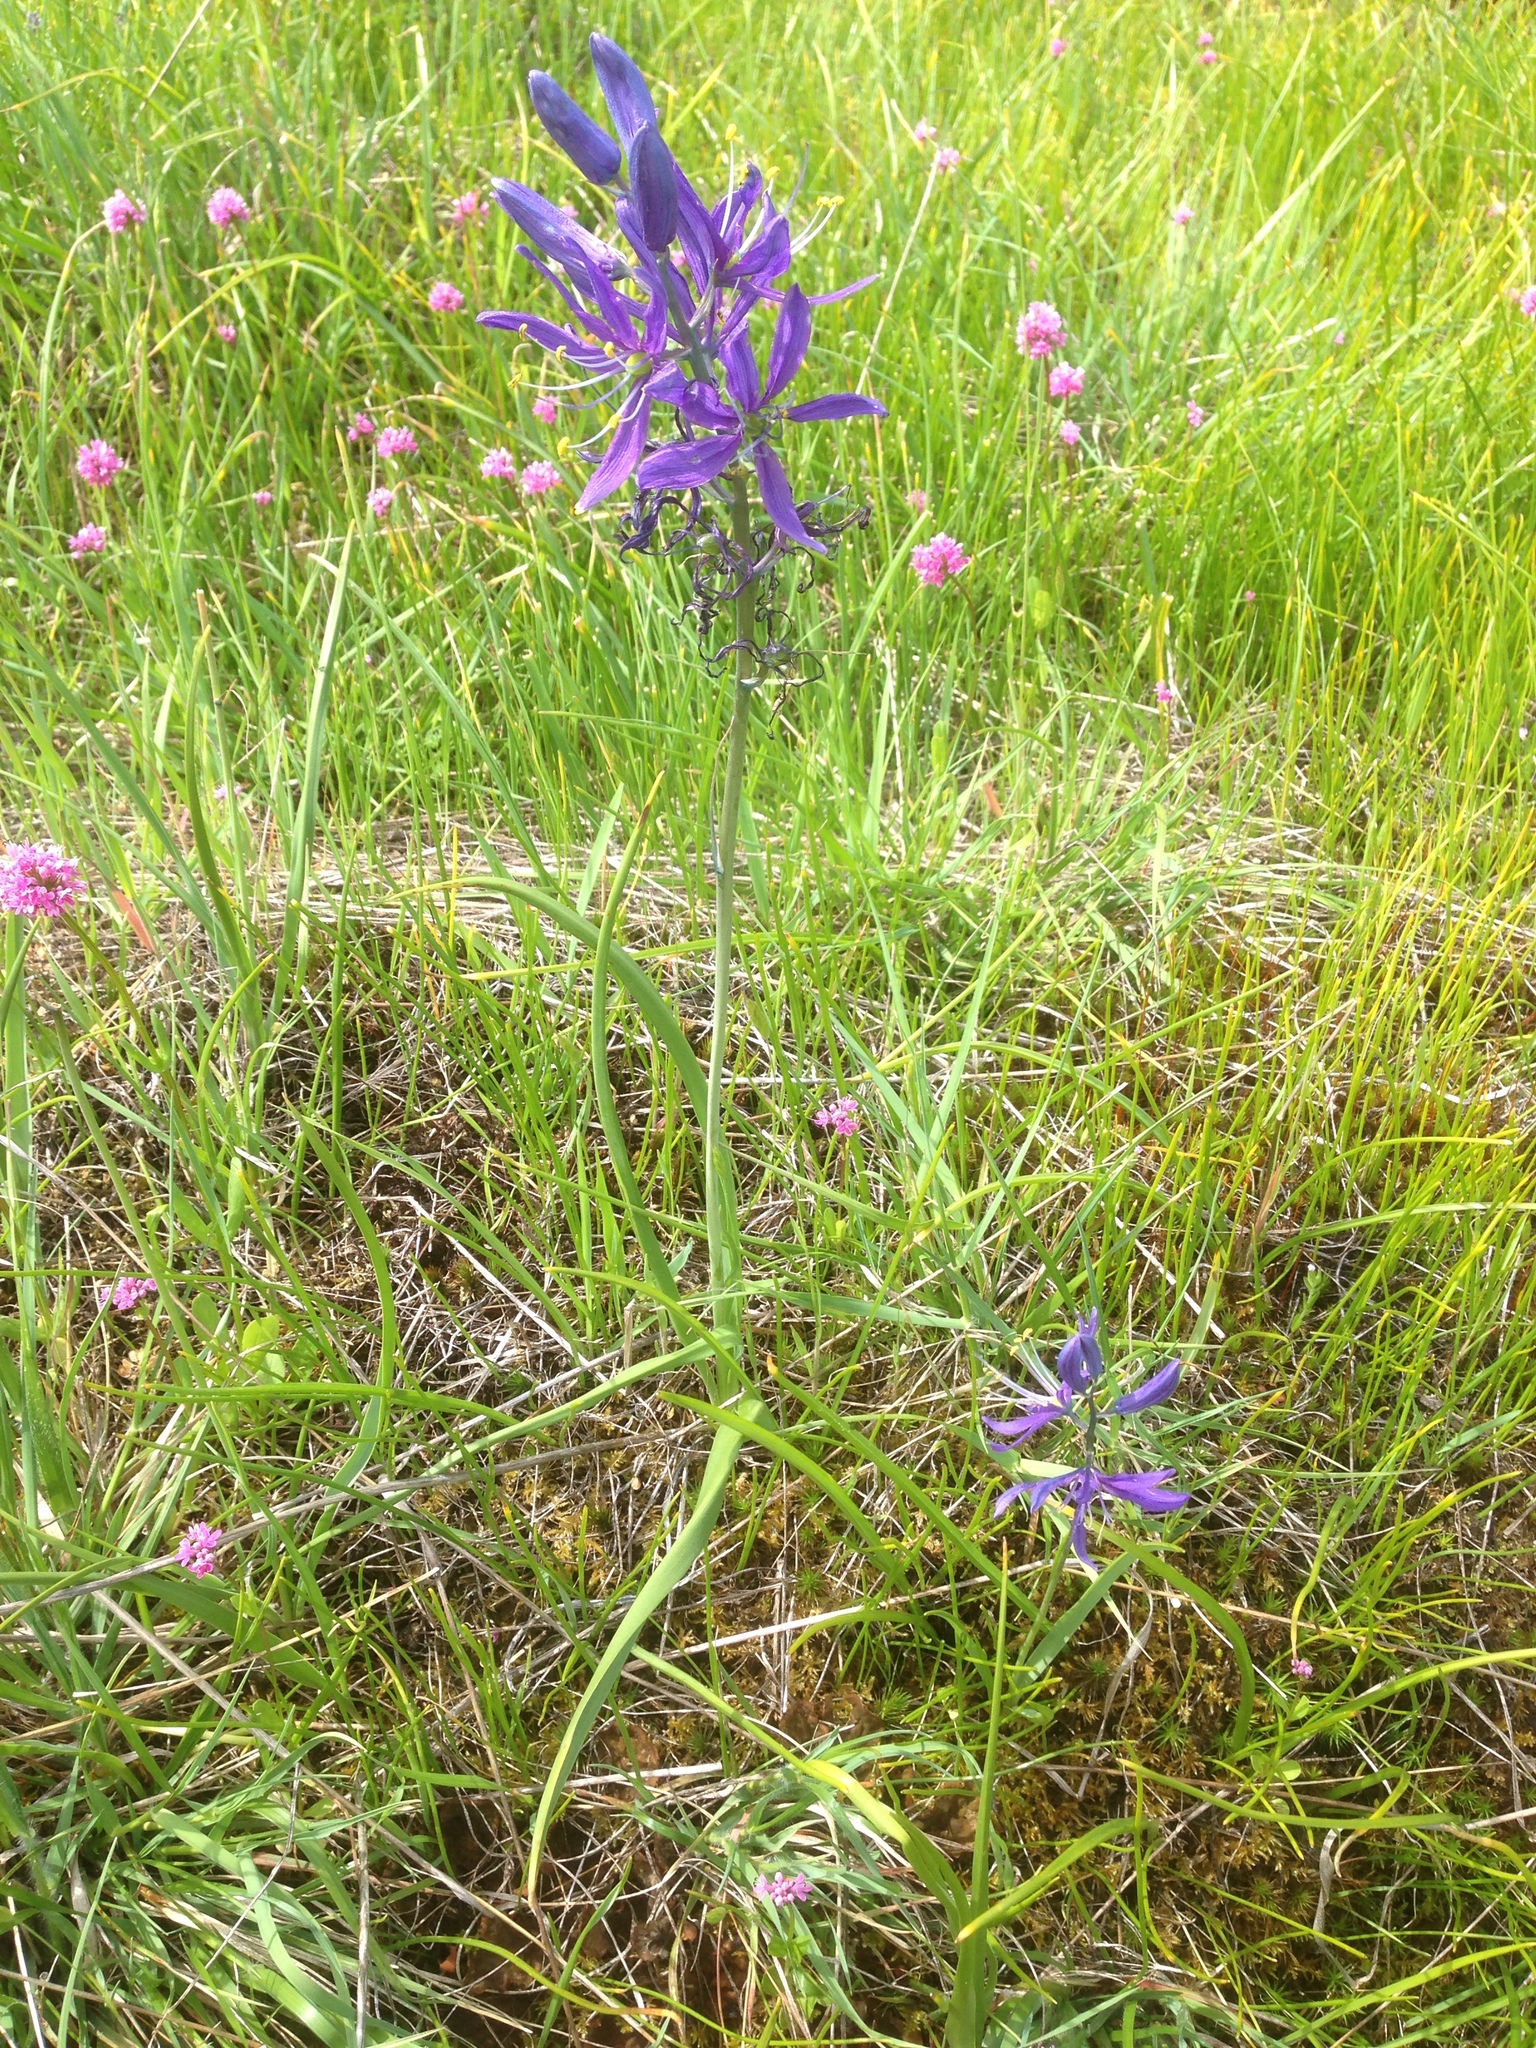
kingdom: Plantae
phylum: Tracheophyta
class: Liliopsida
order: Asparagales
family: Asparagaceae
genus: Camassia
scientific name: Camassia quamash
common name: Common camas
